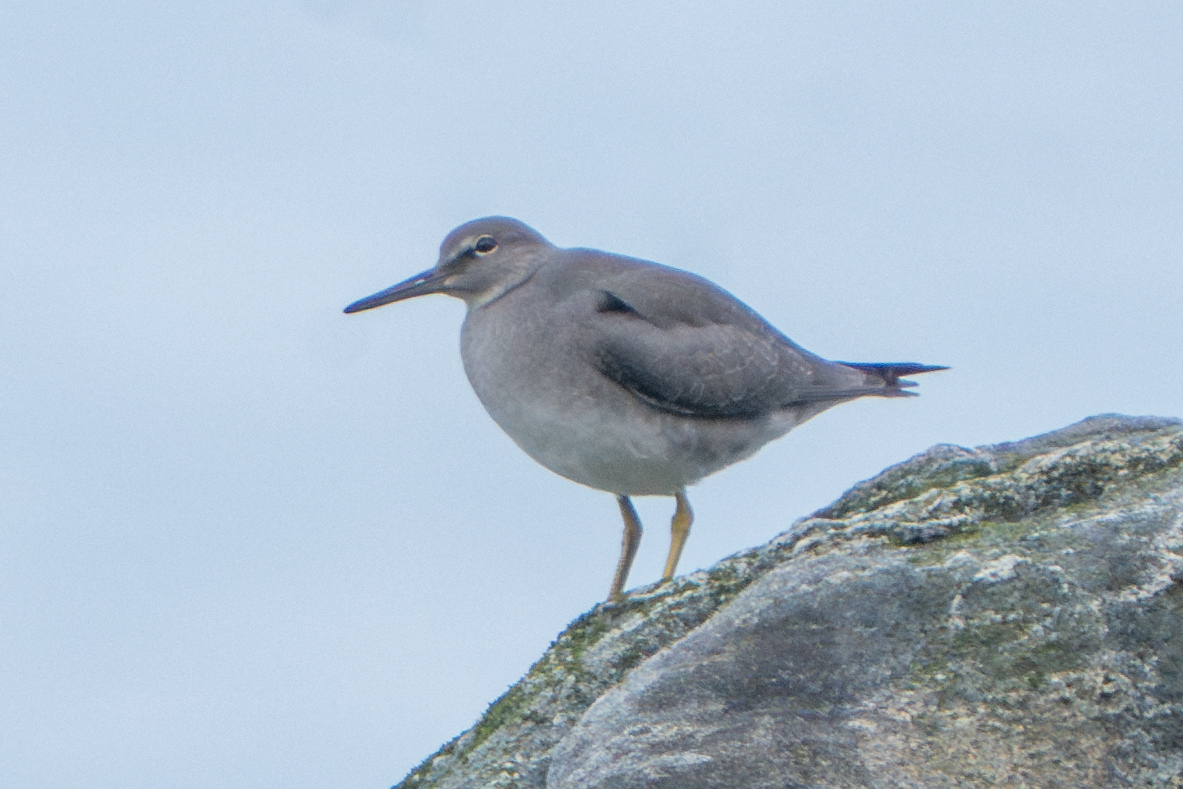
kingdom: Animalia
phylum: Chordata
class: Aves
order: Charadriiformes
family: Scolopacidae
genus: Tringa
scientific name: Tringa incana
